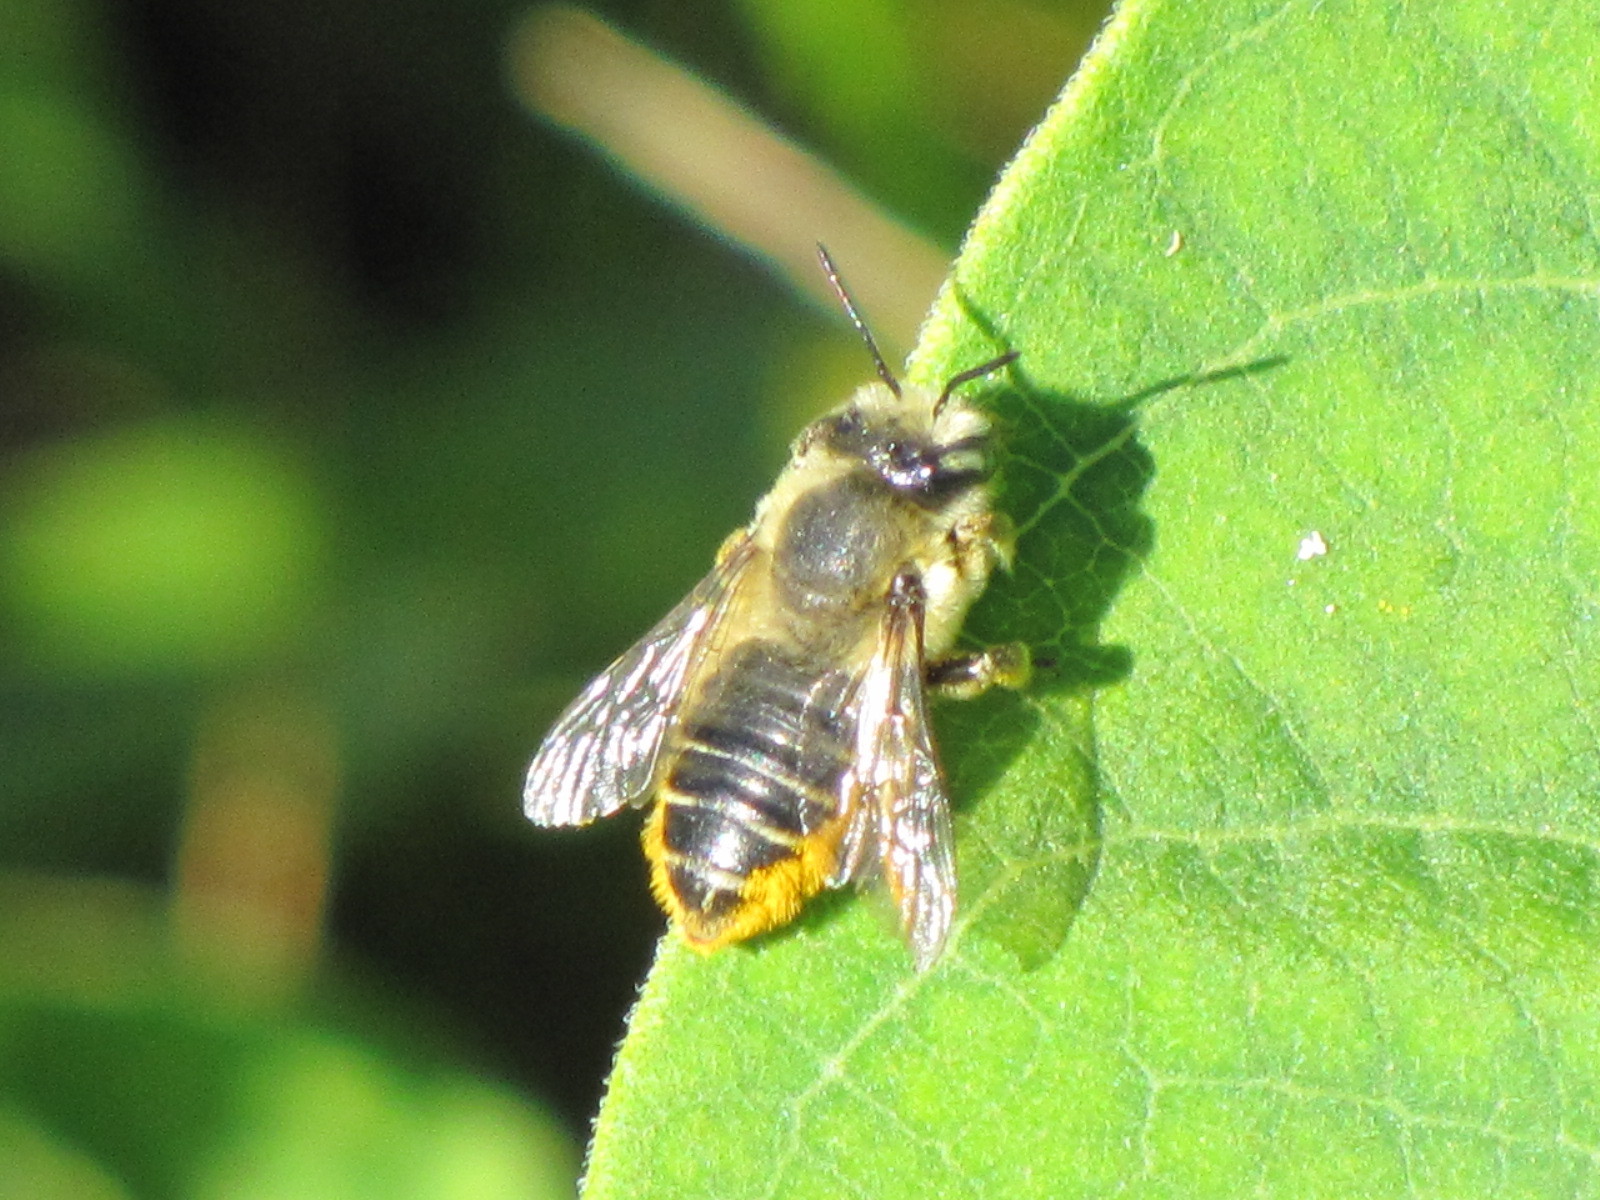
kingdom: Animalia
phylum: Arthropoda
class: Insecta
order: Hymenoptera
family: Megachilidae
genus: Megachile
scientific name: Megachile latimanus
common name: Leafcutting bee
